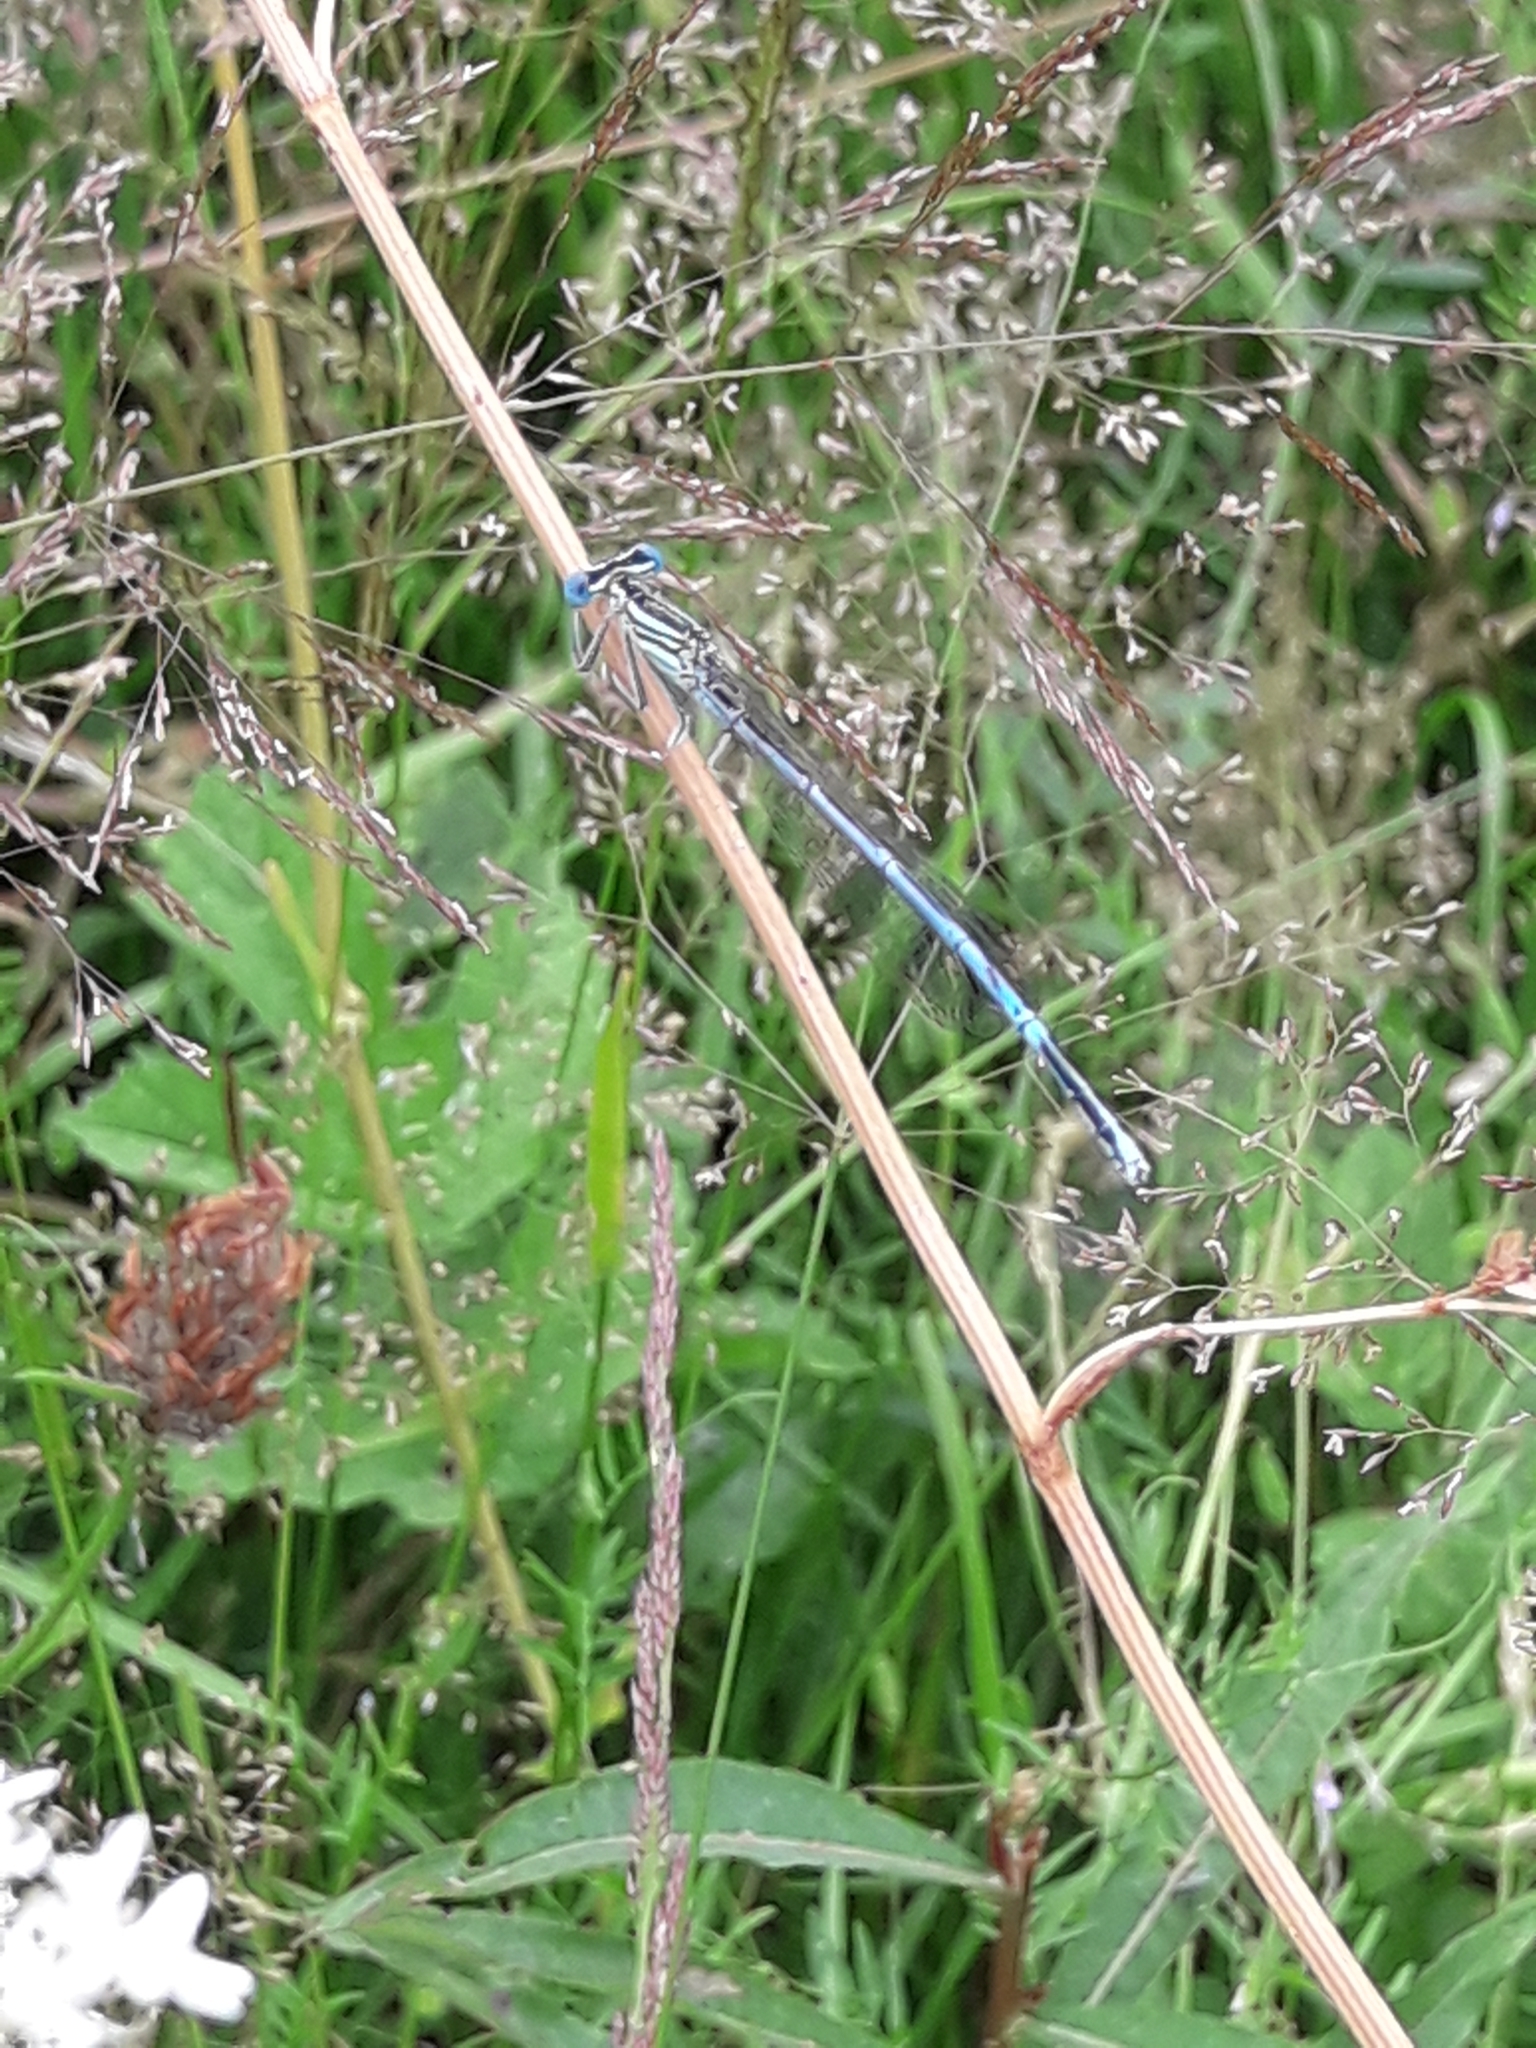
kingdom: Animalia
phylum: Arthropoda
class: Insecta
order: Odonata
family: Platycnemididae
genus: Platycnemis
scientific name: Platycnemis pennipes
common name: White-legged damselfly
